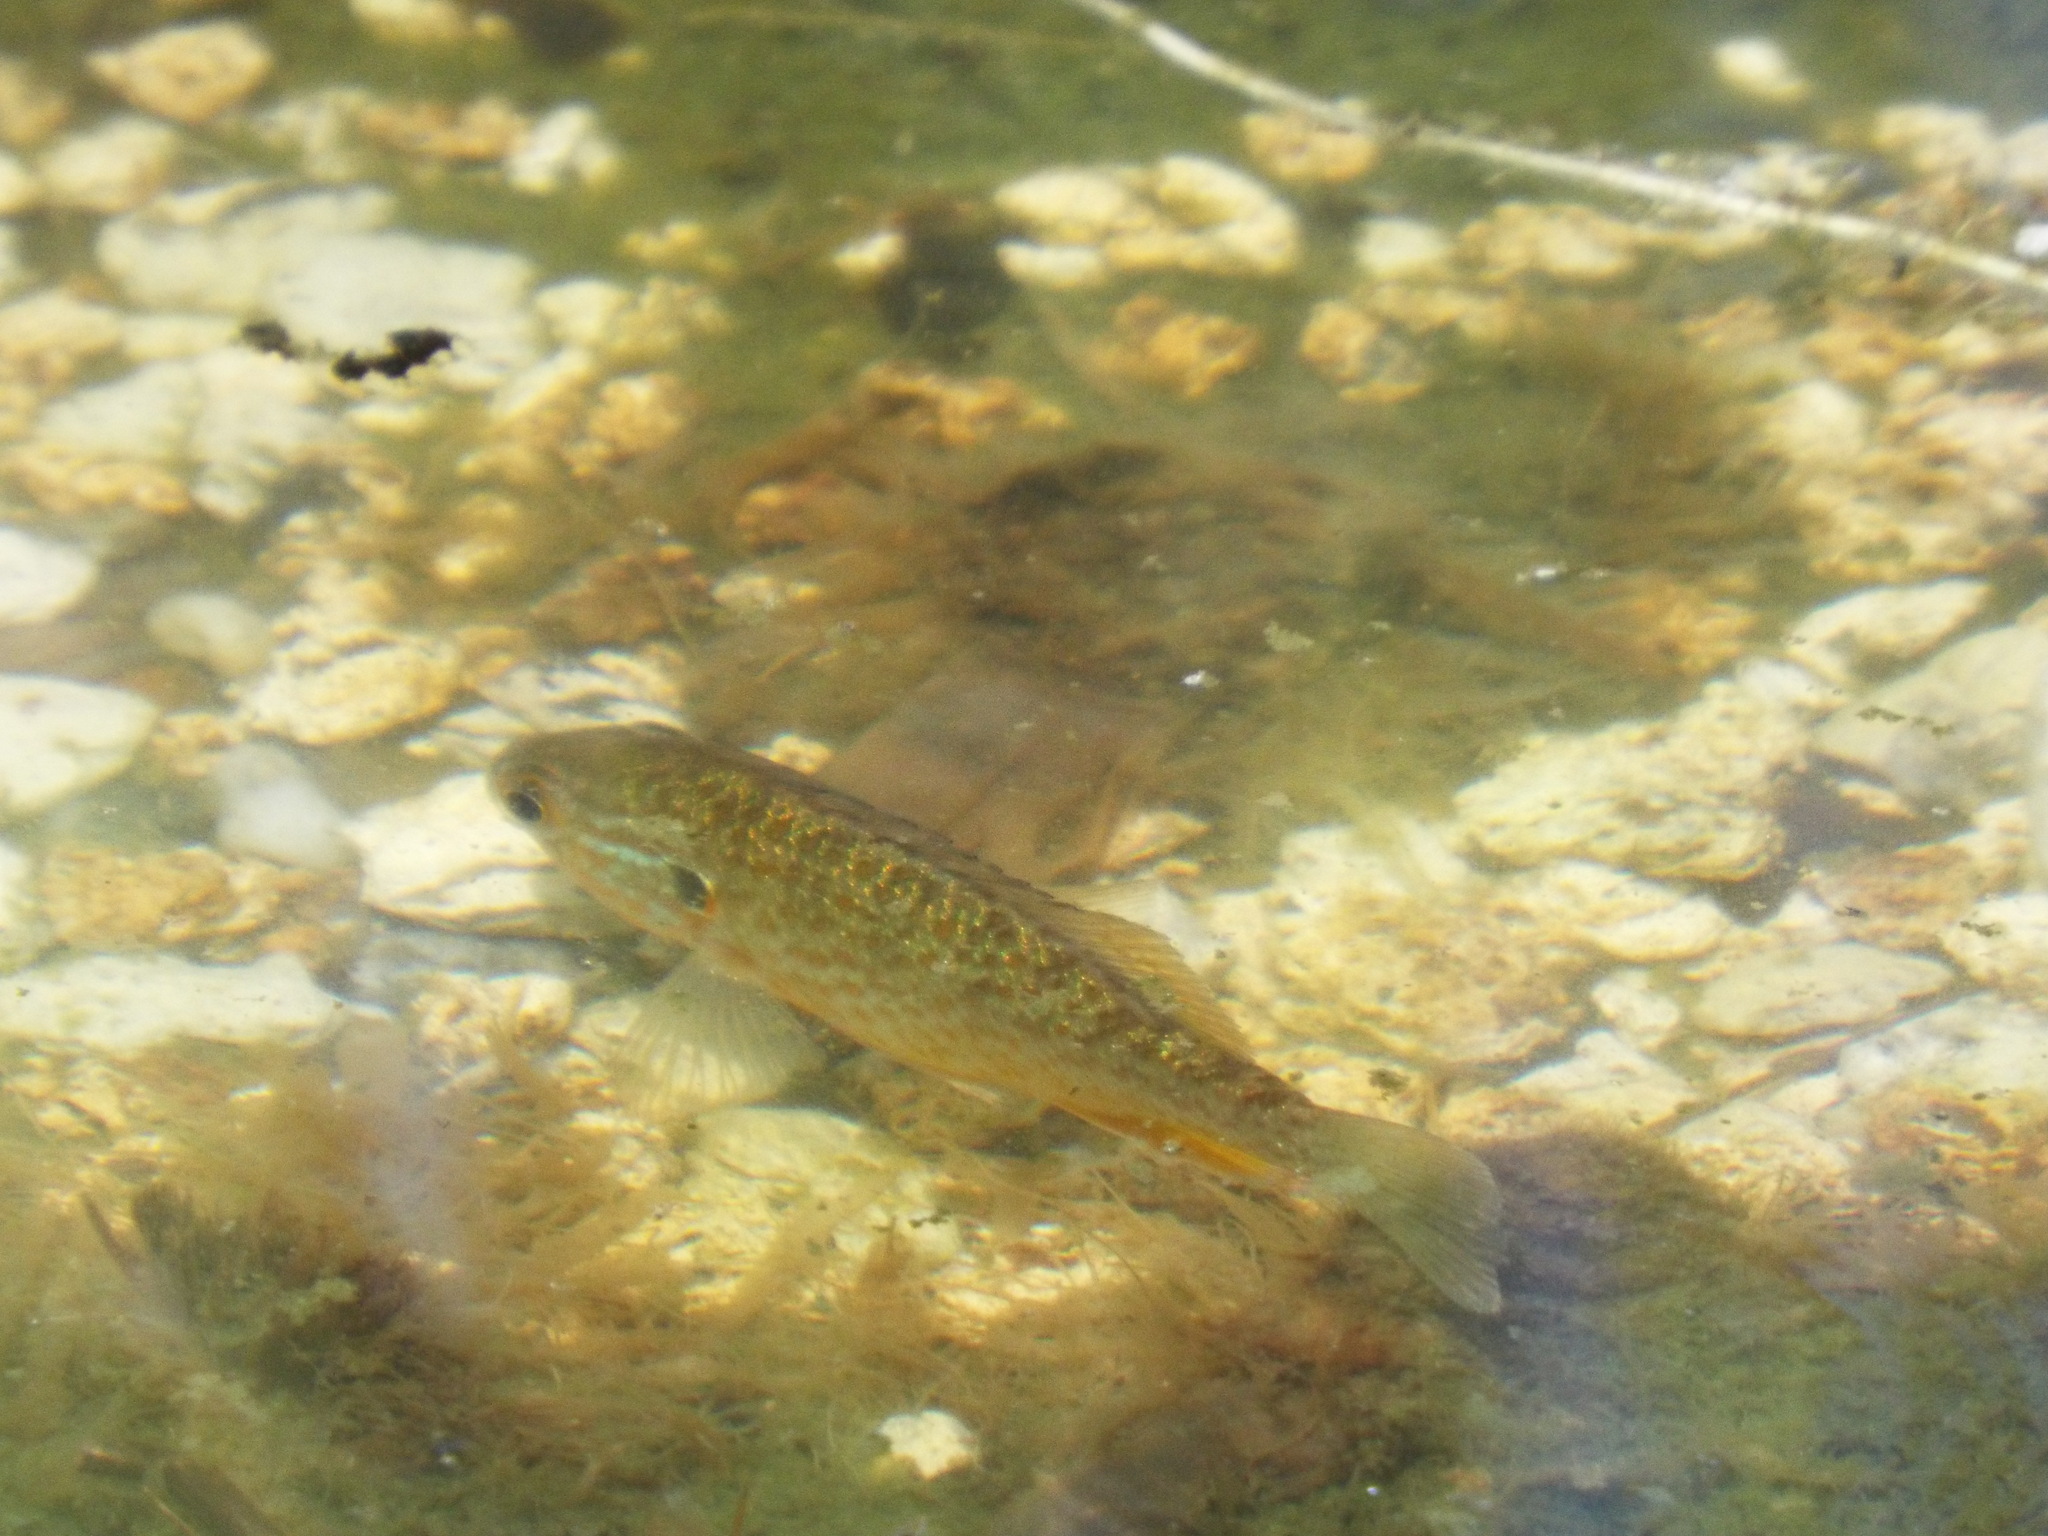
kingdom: Animalia
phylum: Chordata
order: Perciformes
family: Centrarchidae
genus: Lepomis
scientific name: Lepomis gibbosus
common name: Pumpkinseed
